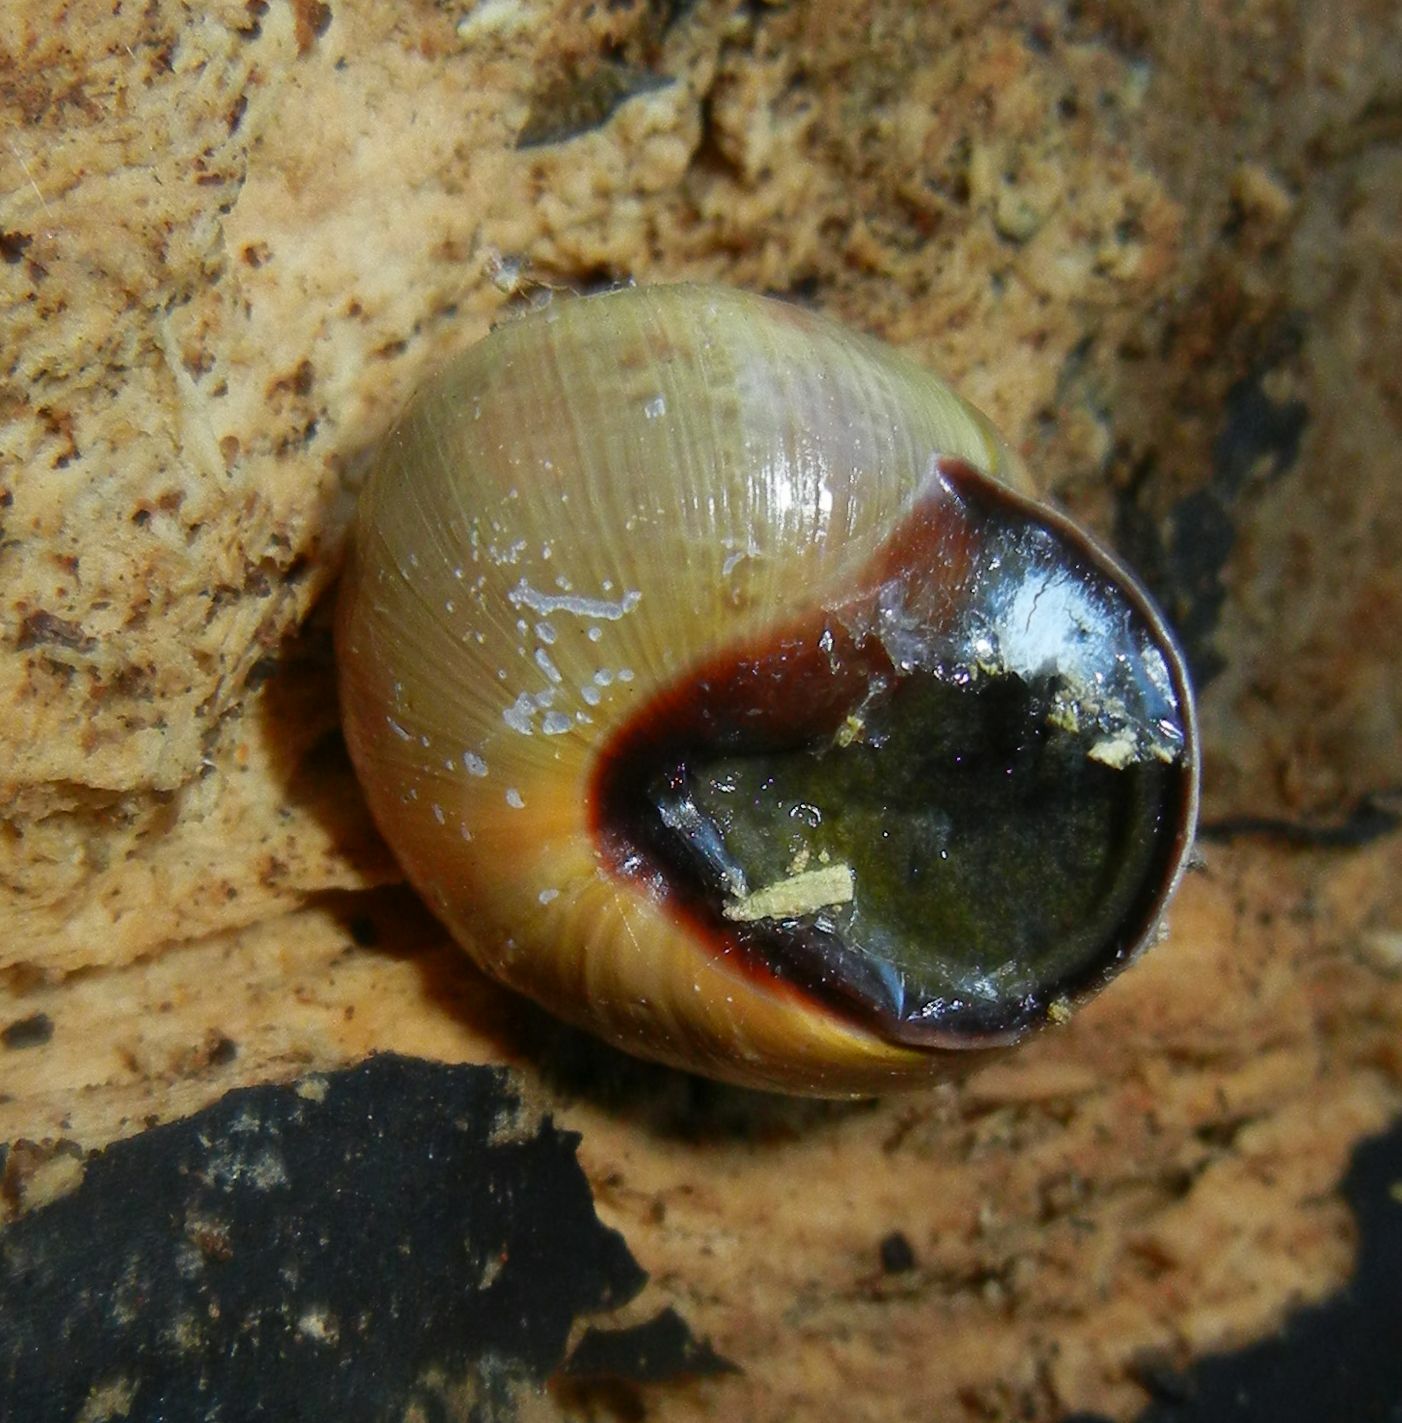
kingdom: Animalia
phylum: Mollusca
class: Gastropoda
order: Stylommatophora
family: Helicidae
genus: Cepaea
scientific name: Cepaea nemoralis
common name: Grovesnail
